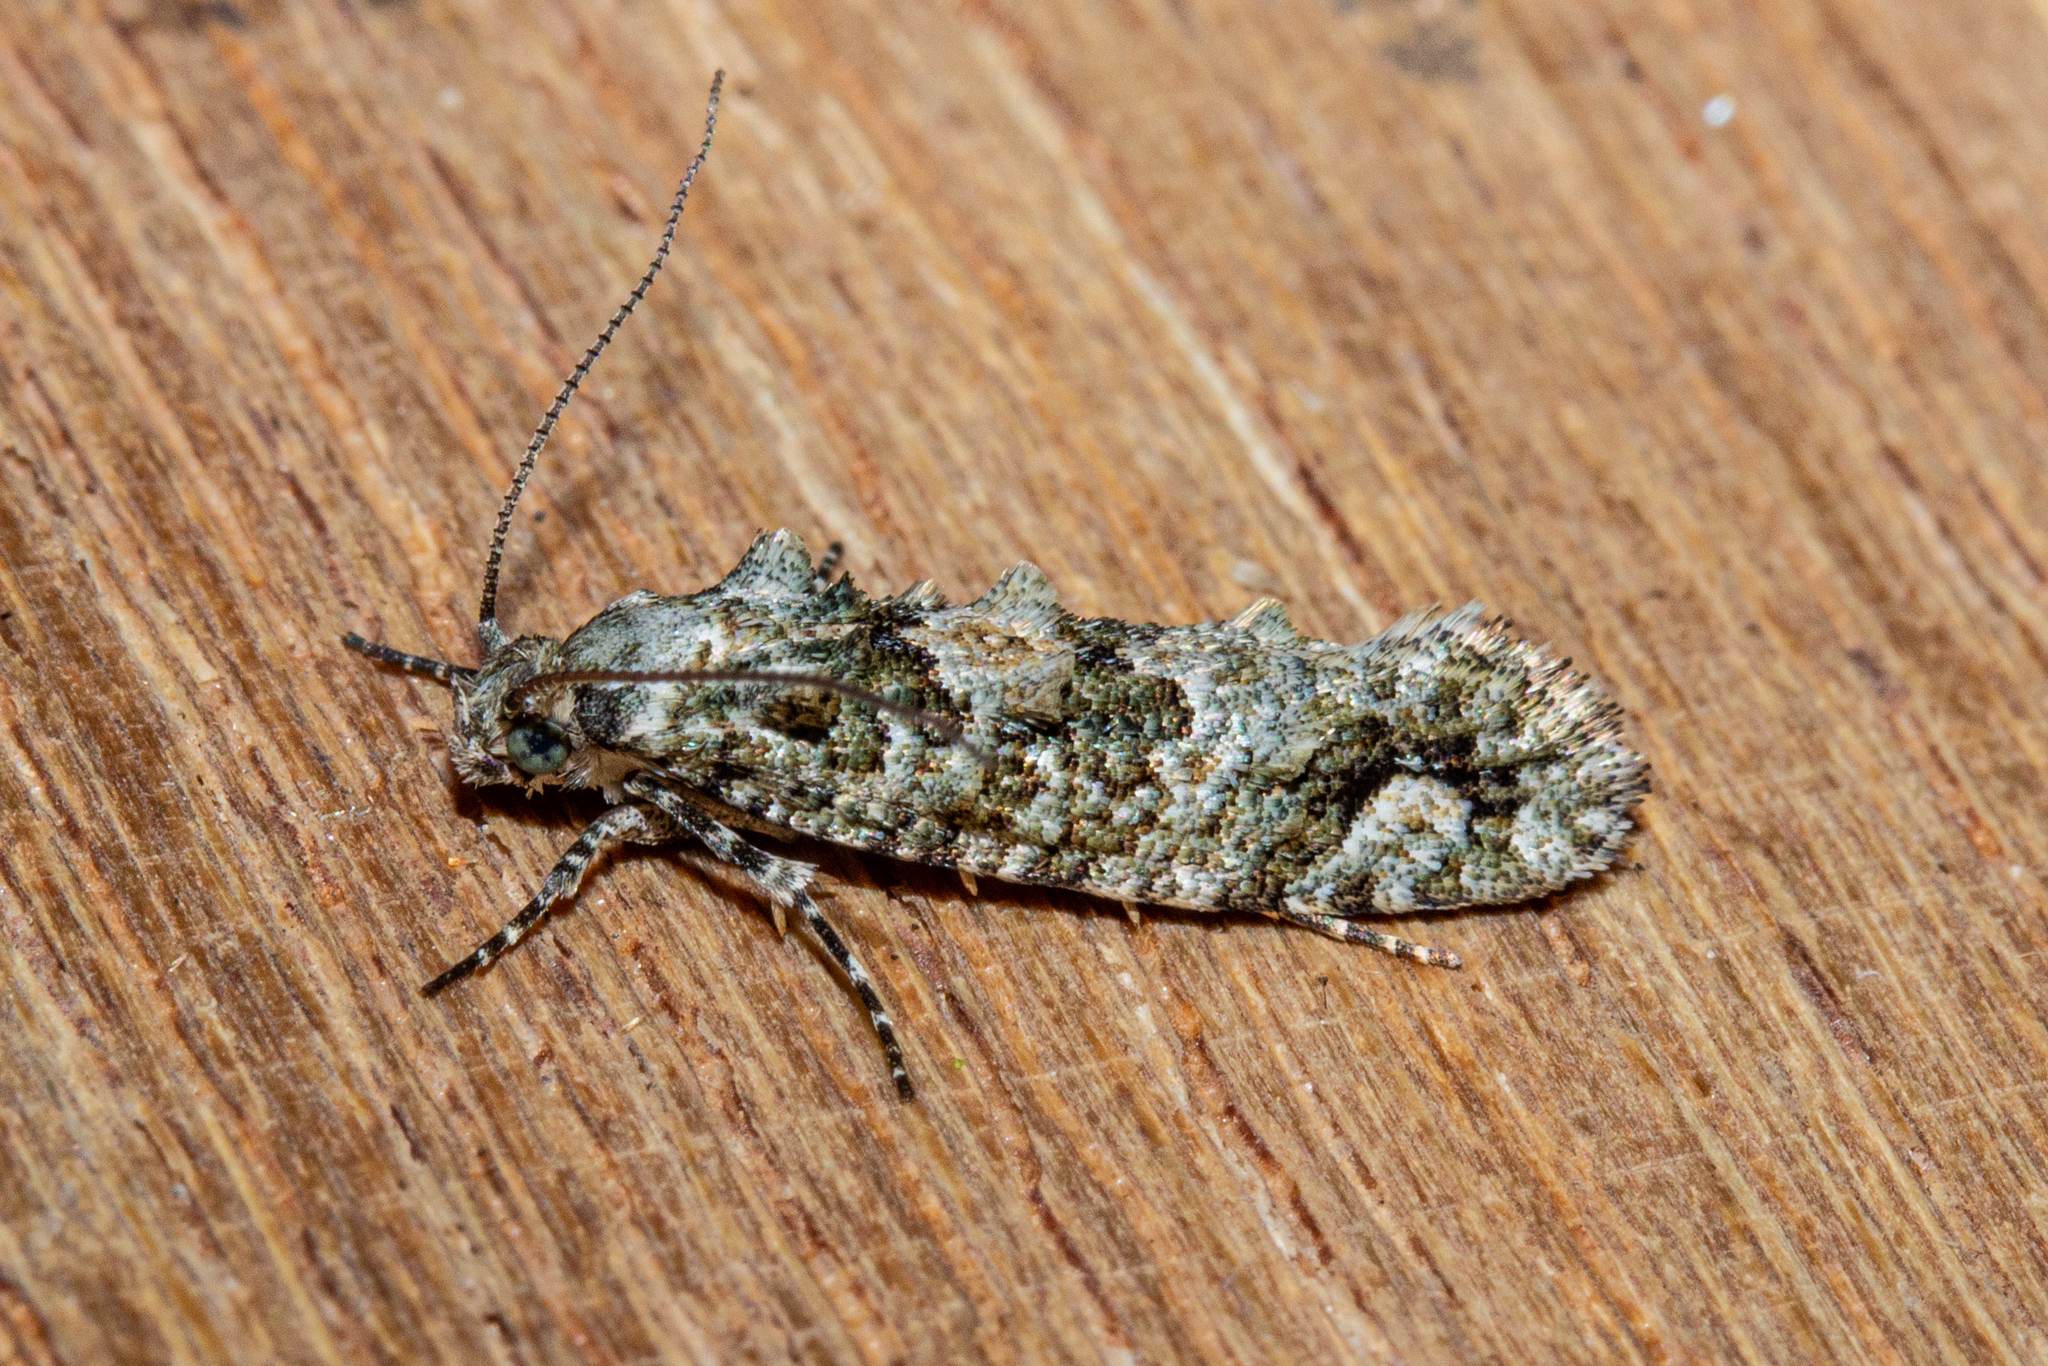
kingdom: Animalia
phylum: Arthropoda
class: Insecta
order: Lepidoptera
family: Tineidae
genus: Lysiphragma
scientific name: Lysiphragma howesii
